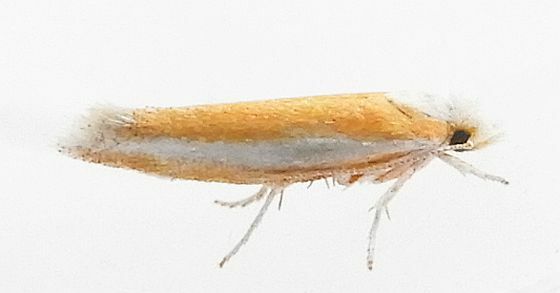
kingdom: Animalia
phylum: Arthropoda
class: Insecta
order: Lepidoptera
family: Yponomeutidae
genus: Zelleria
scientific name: Zelleria haimbachi
